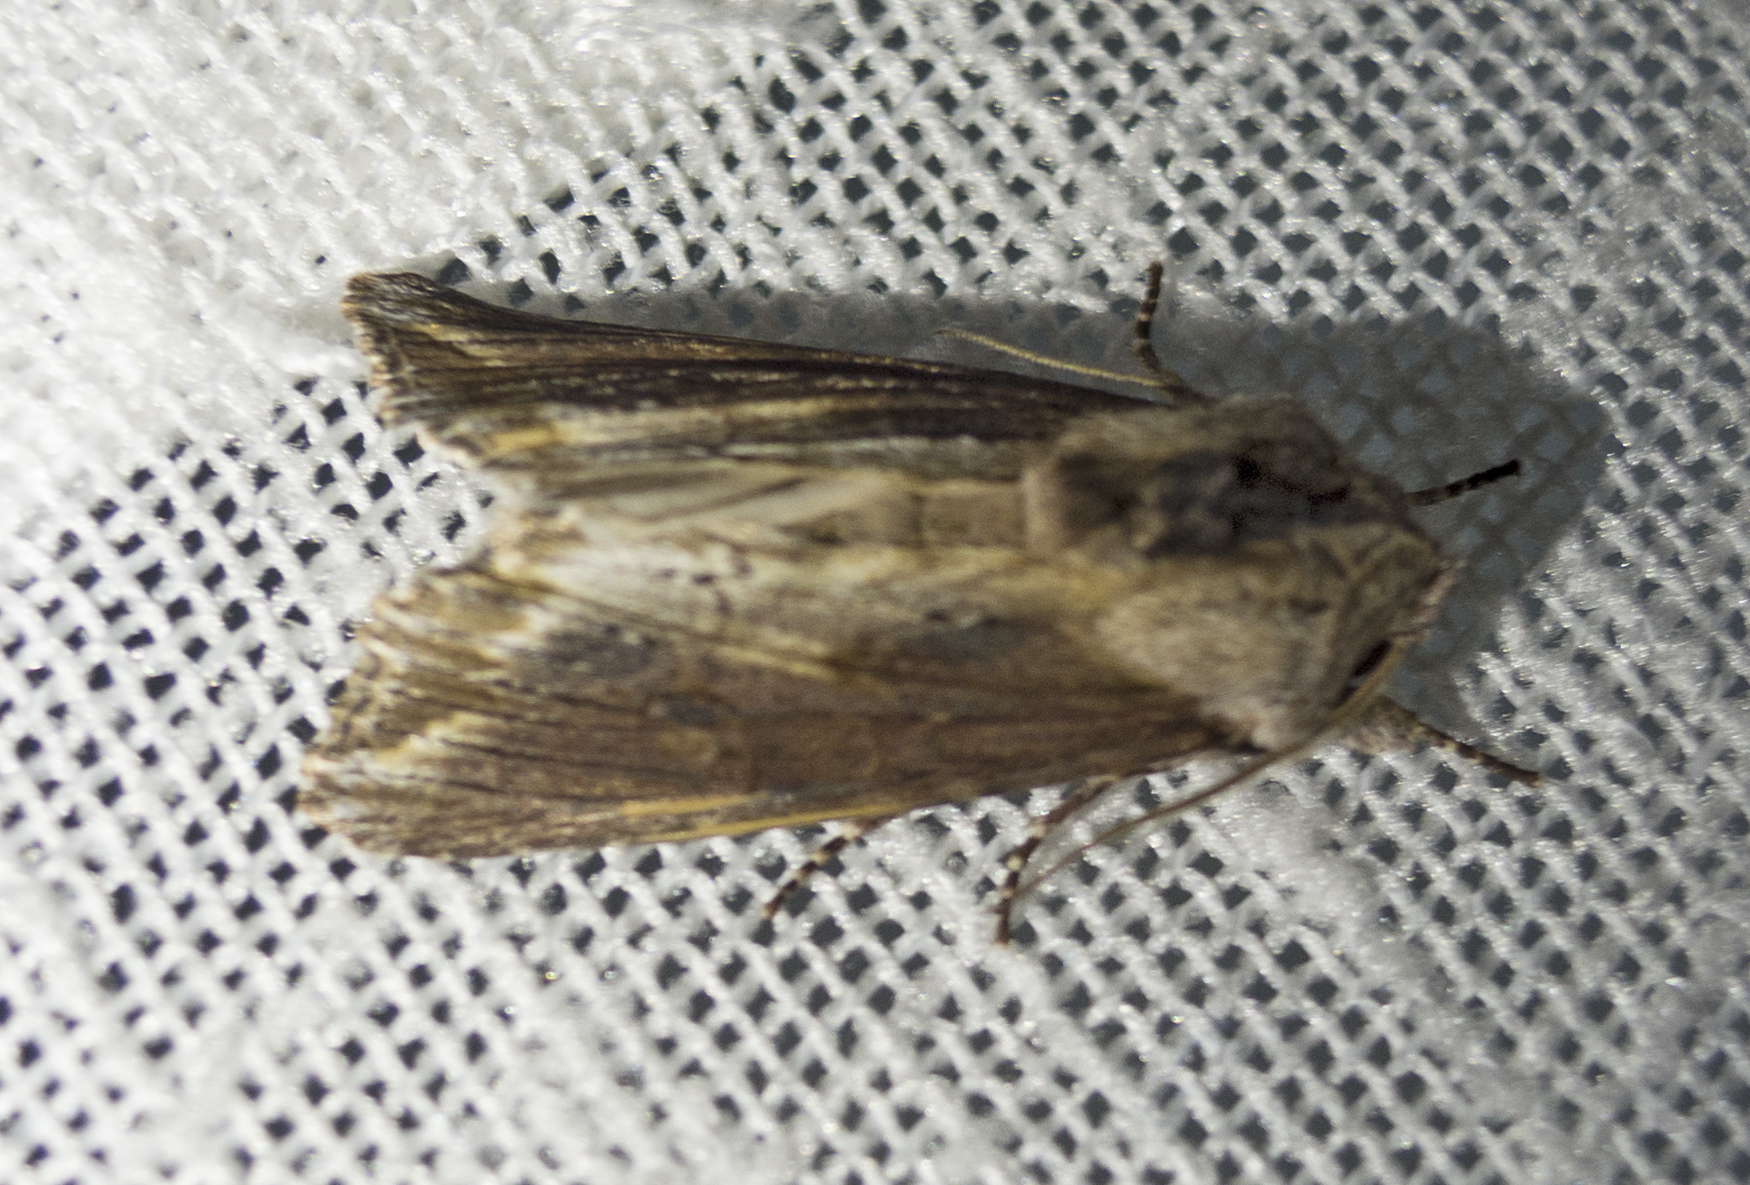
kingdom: Animalia
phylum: Arthropoda
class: Insecta
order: Lepidoptera
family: Noctuidae
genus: Egira
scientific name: Egira
